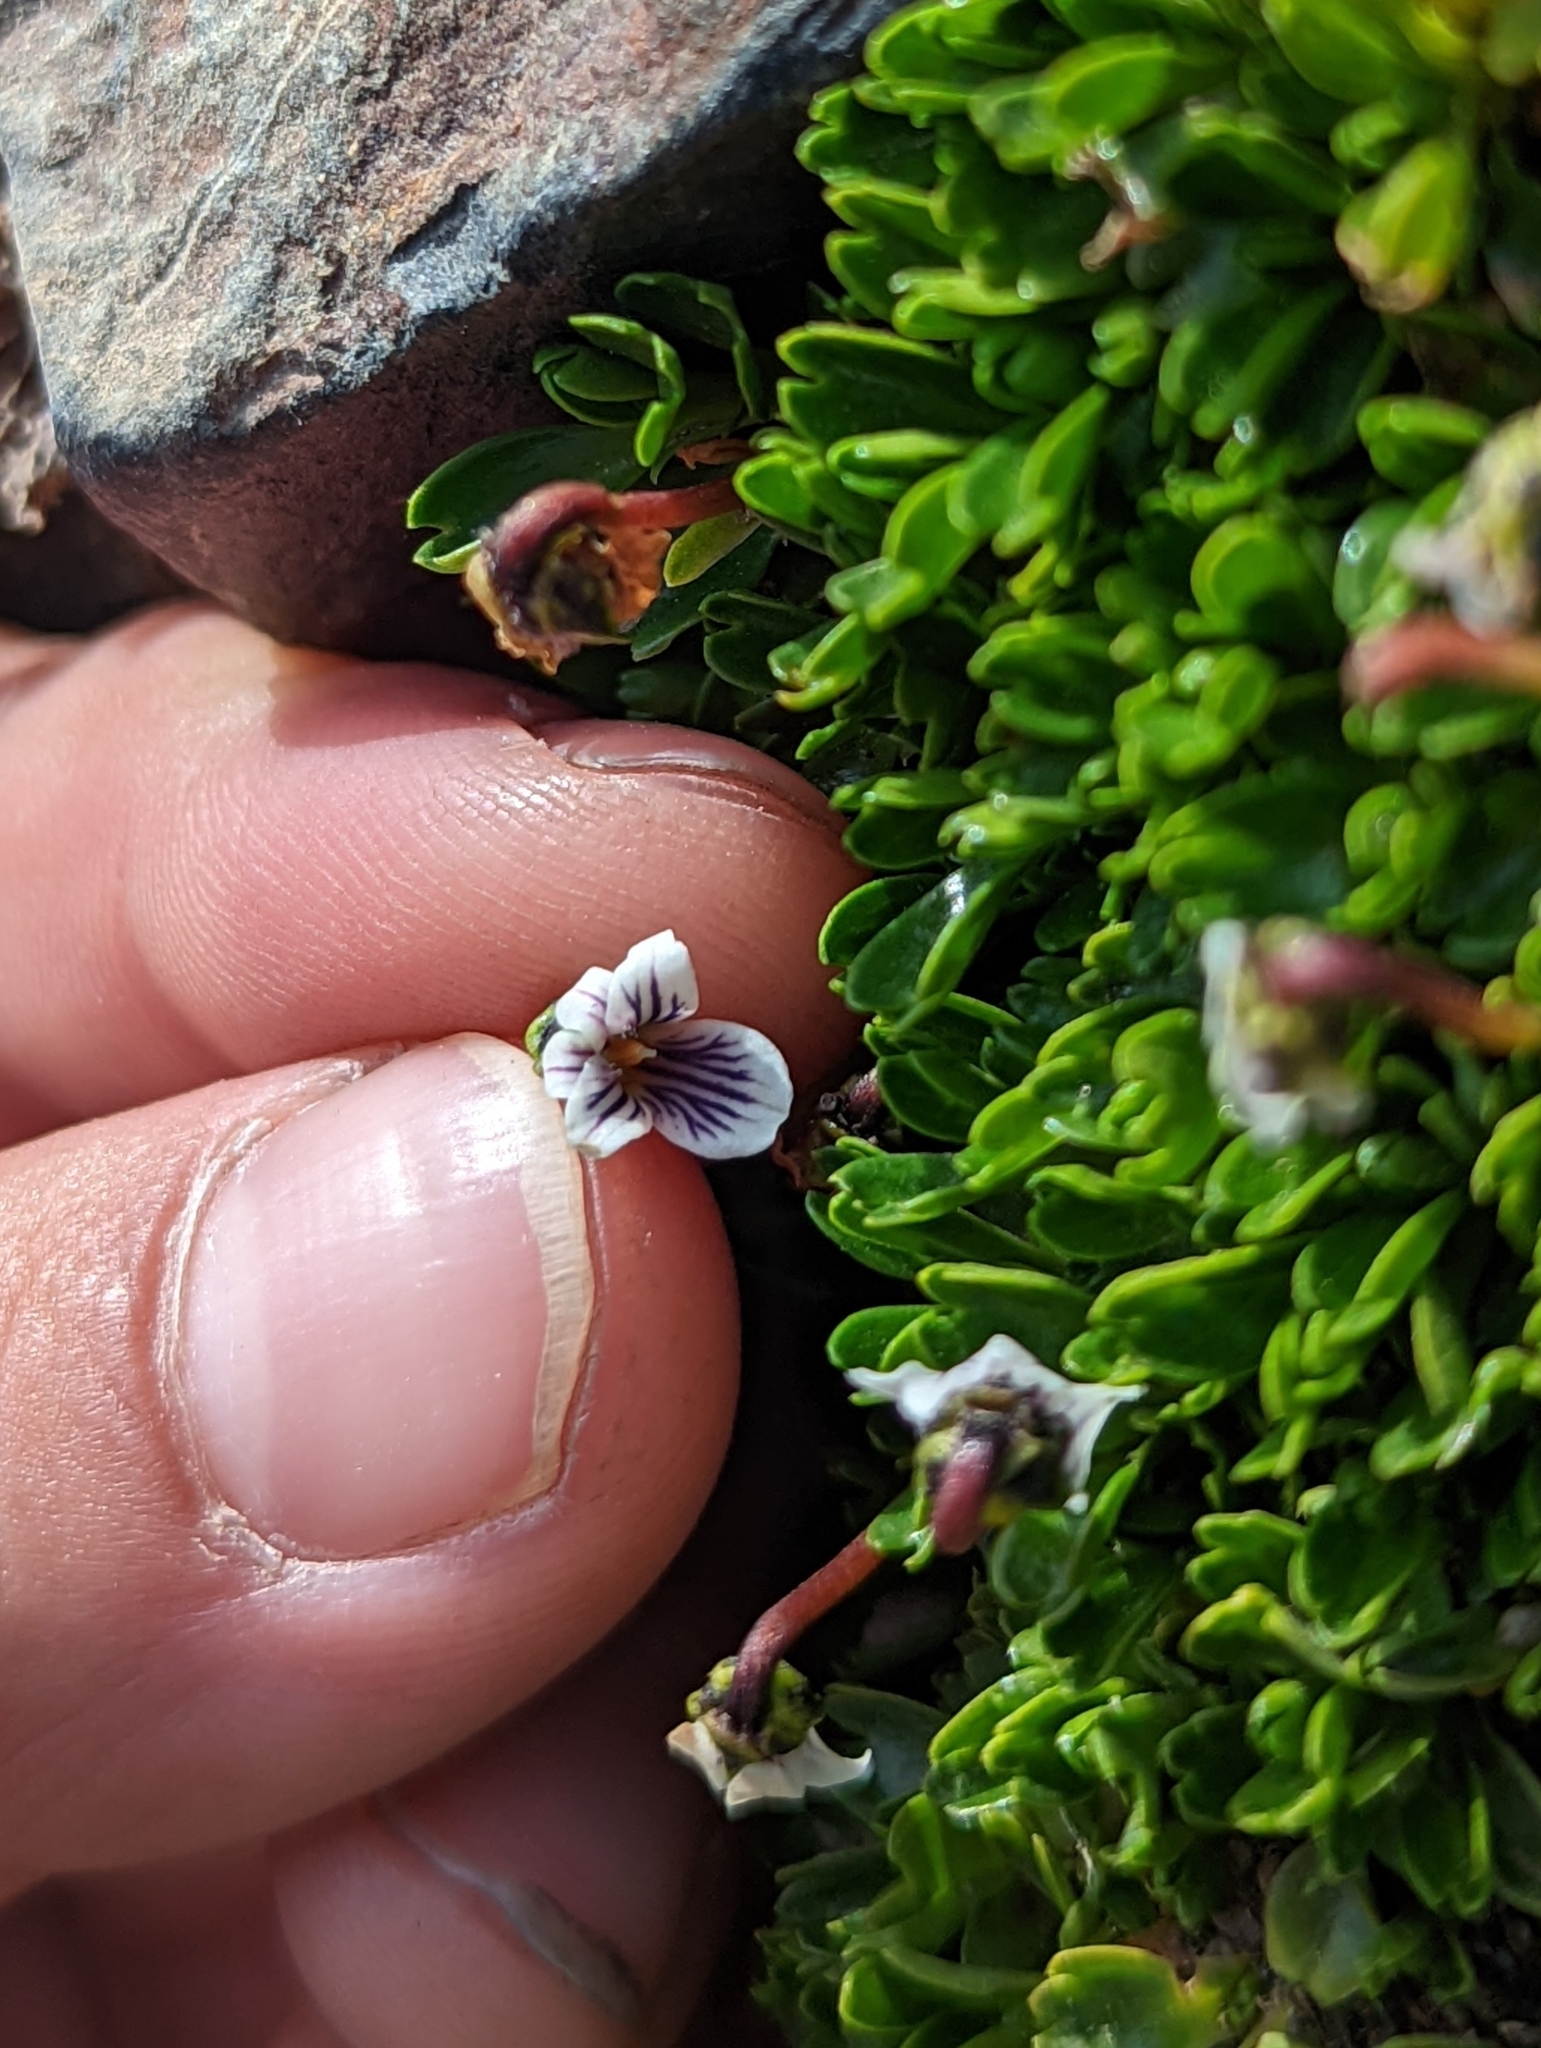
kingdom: Plantae
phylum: Tracheophyta
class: Magnoliopsida
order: Malpighiales
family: Violaceae
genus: Viola
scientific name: Viola tridentata
